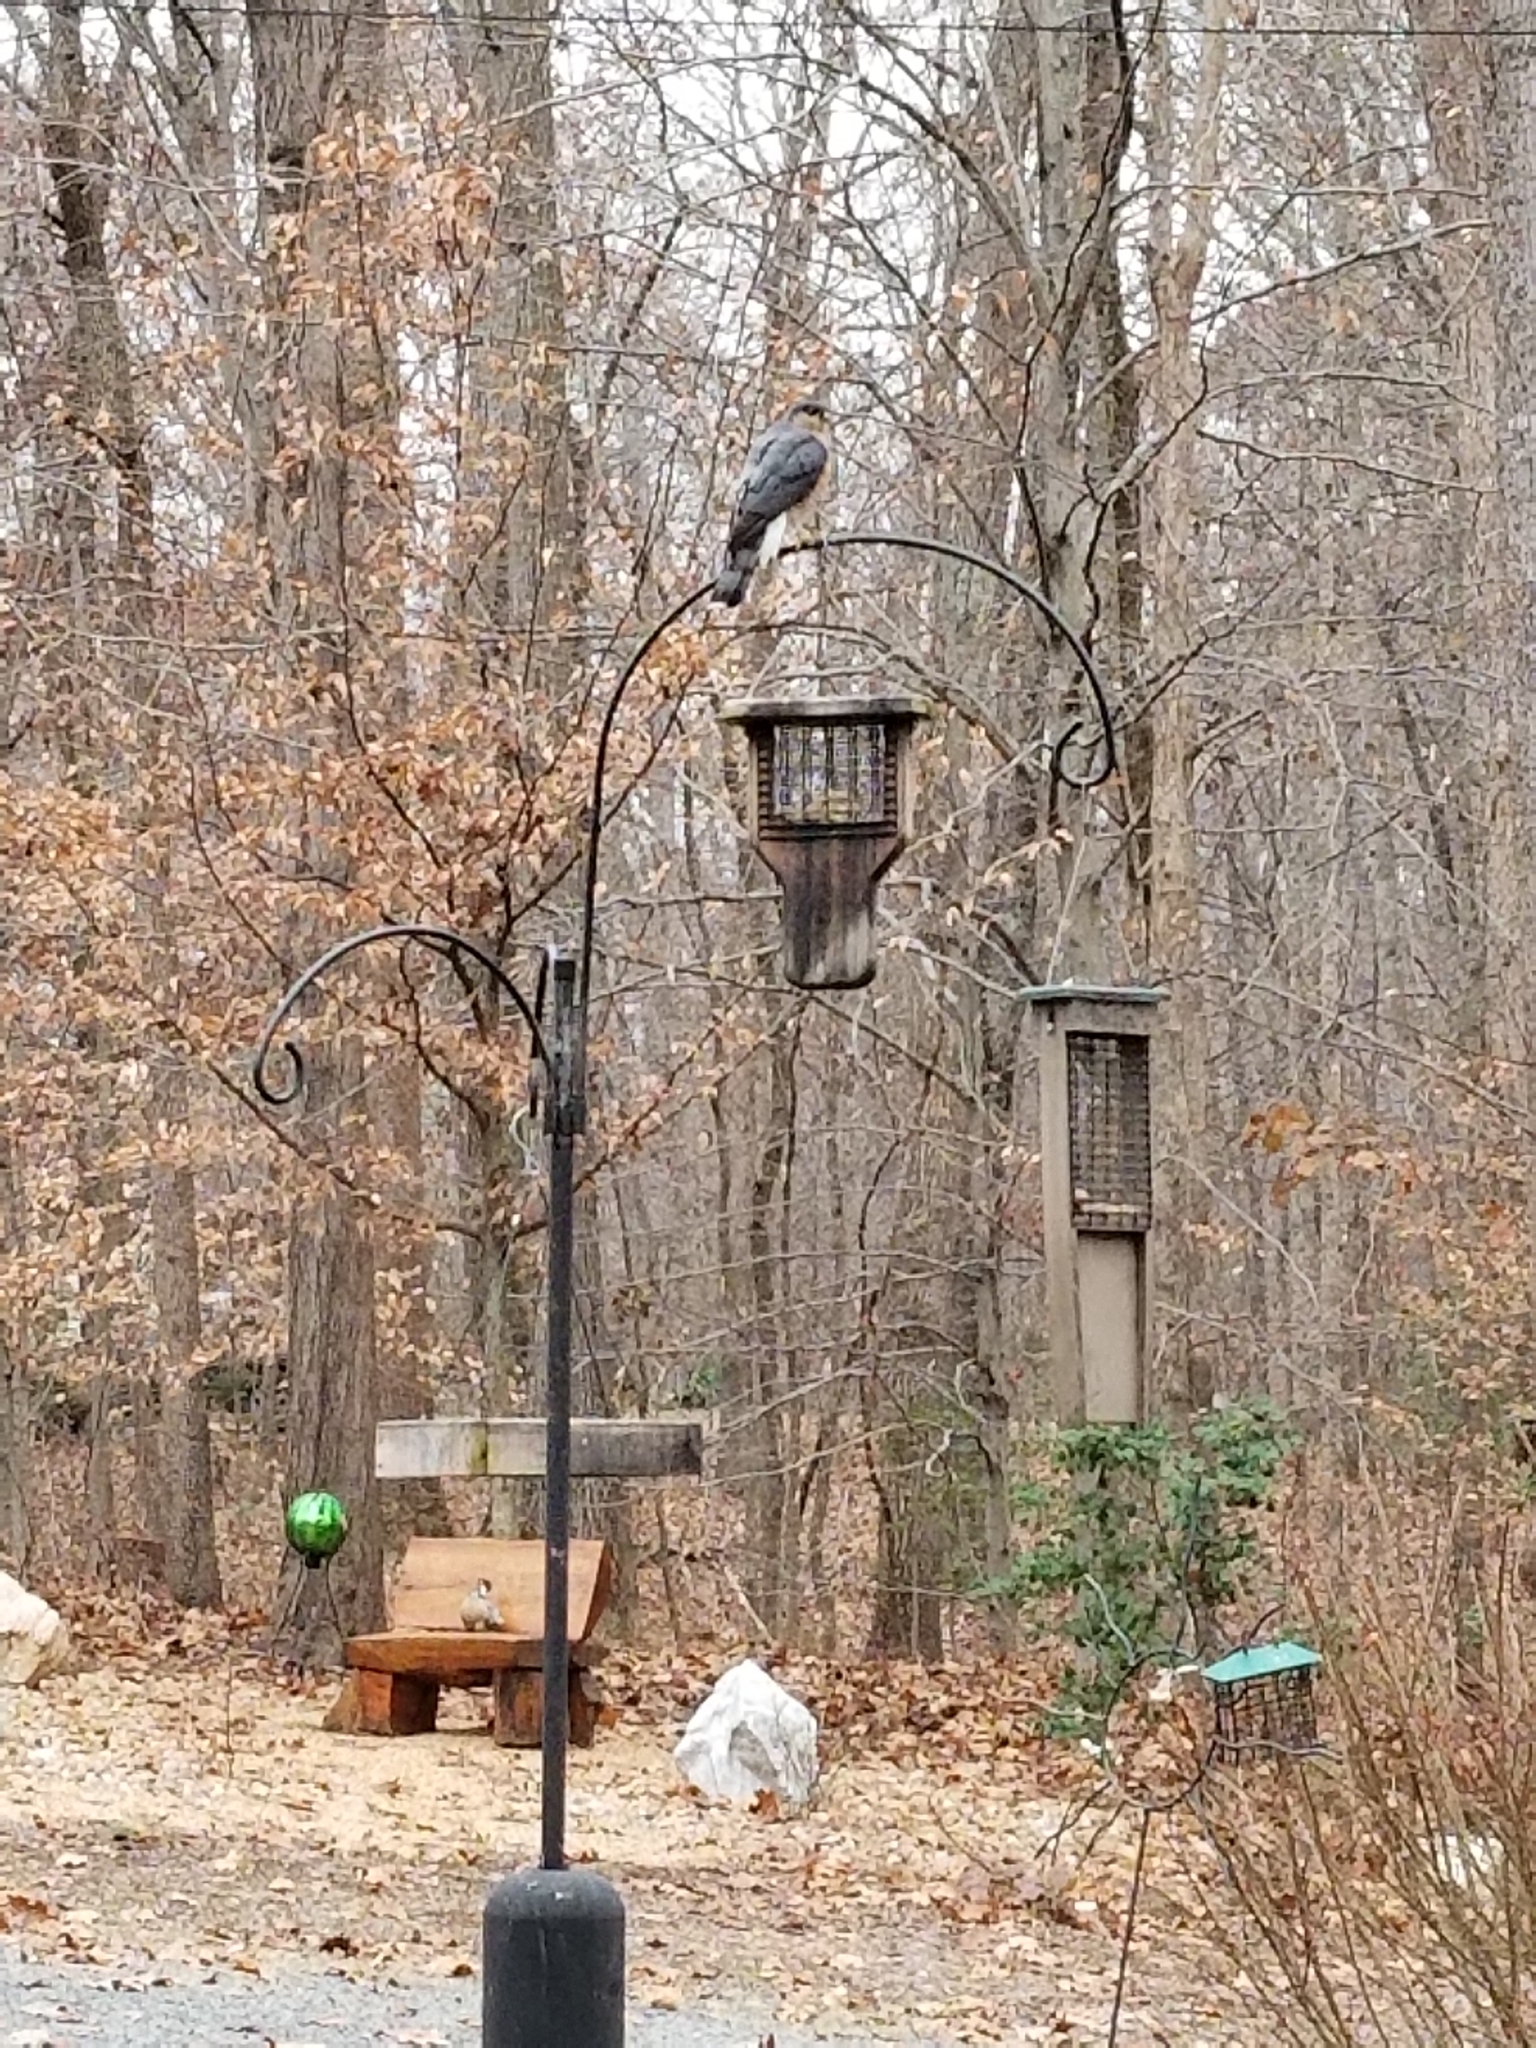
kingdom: Animalia
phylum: Chordata
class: Aves
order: Accipitriformes
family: Accipitridae
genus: Accipiter
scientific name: Accipiter striatus
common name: Sharp-shinned hawk
